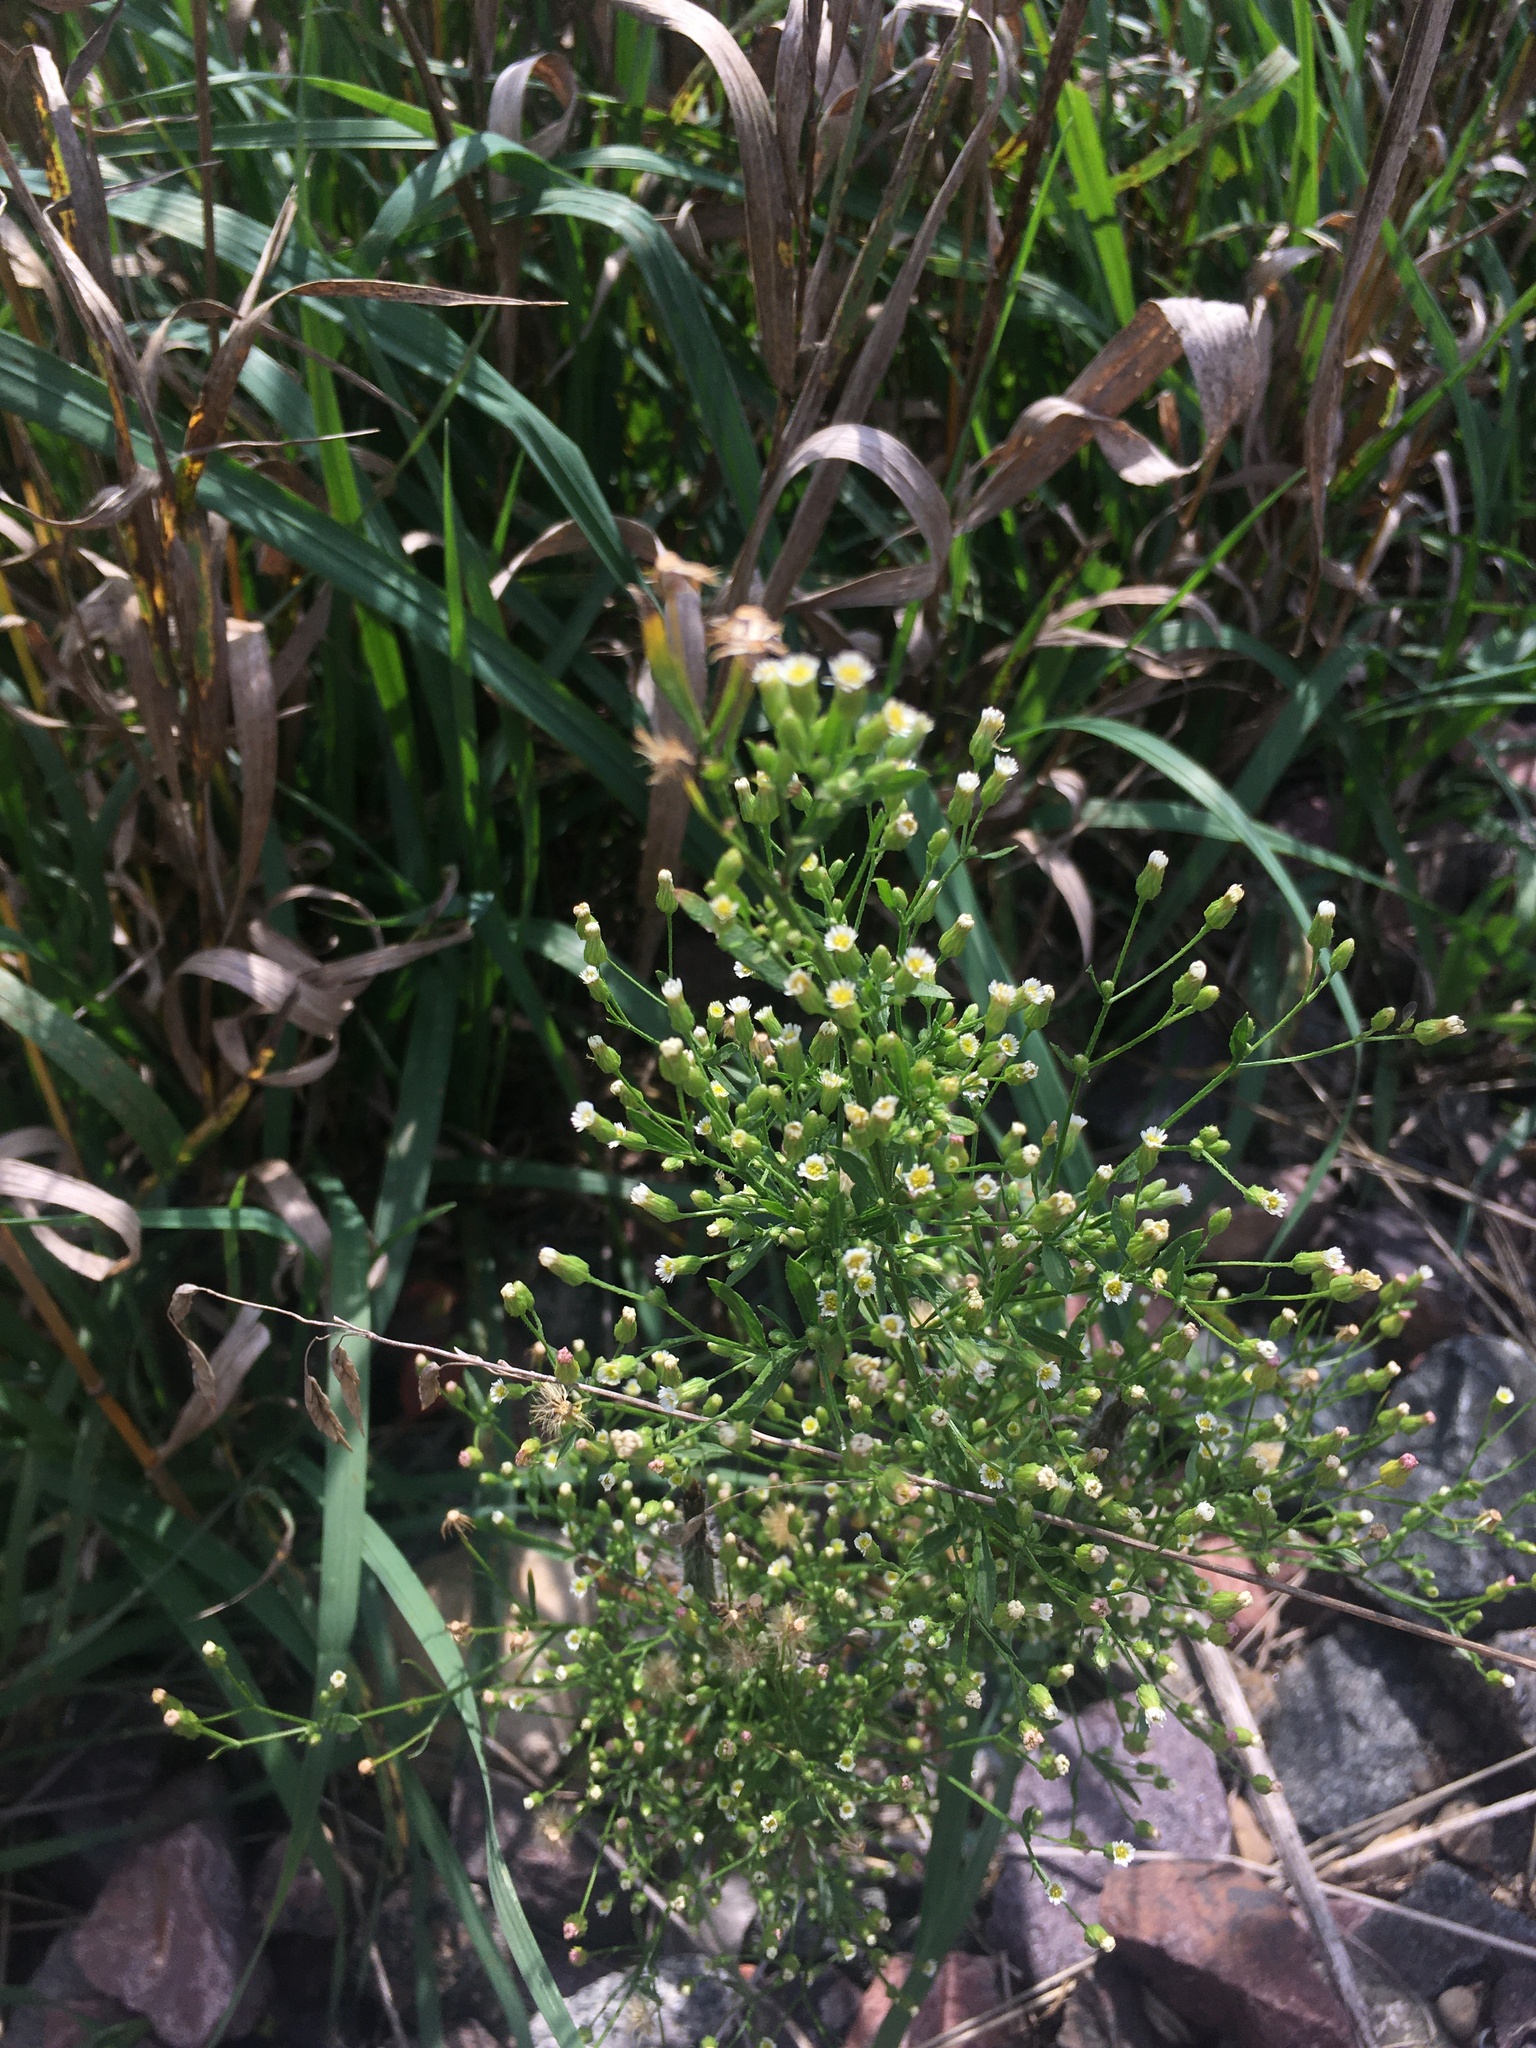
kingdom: Plantae
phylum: Tracheophyta
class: Magnoliopsida
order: Asterales
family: Asteraceae
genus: Erigeron
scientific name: Erigeron canadensis
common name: Canadian fleabane
